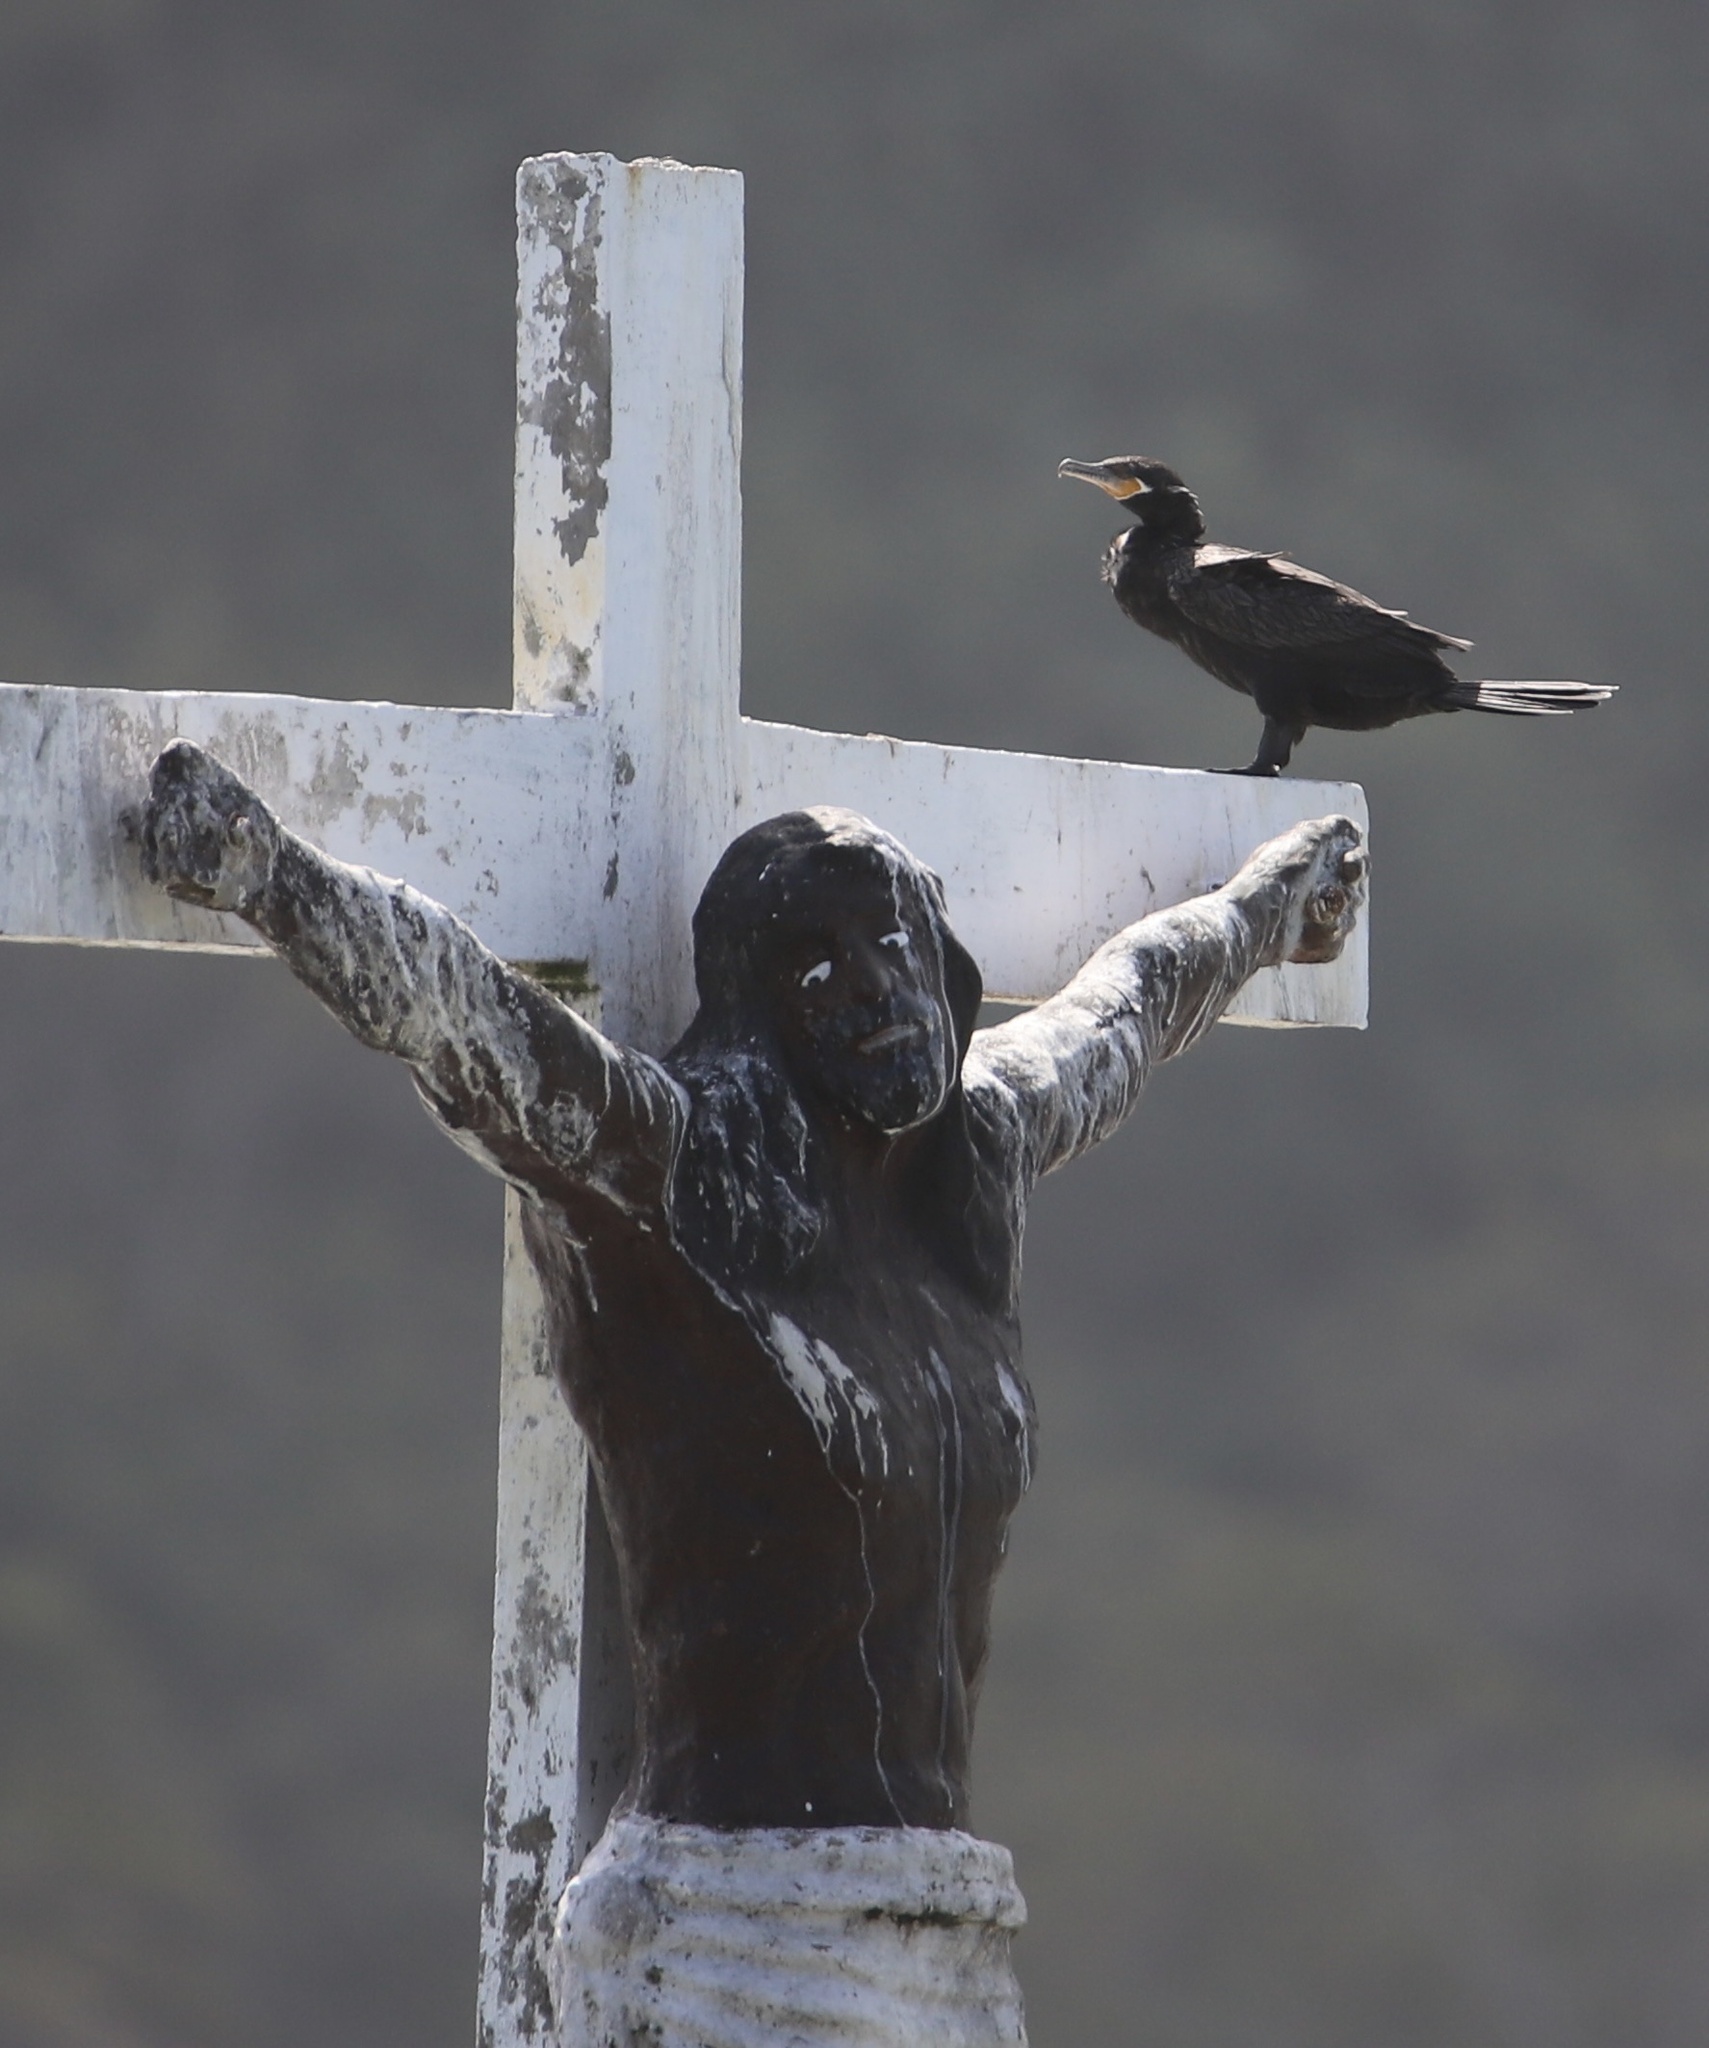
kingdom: Animalia
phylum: Chordata
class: Aves
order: Suliformes
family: Phalacrocoracidae
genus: Phalacrocorax
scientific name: Phalacrocorax brasilianus
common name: Neotropic cormorant
